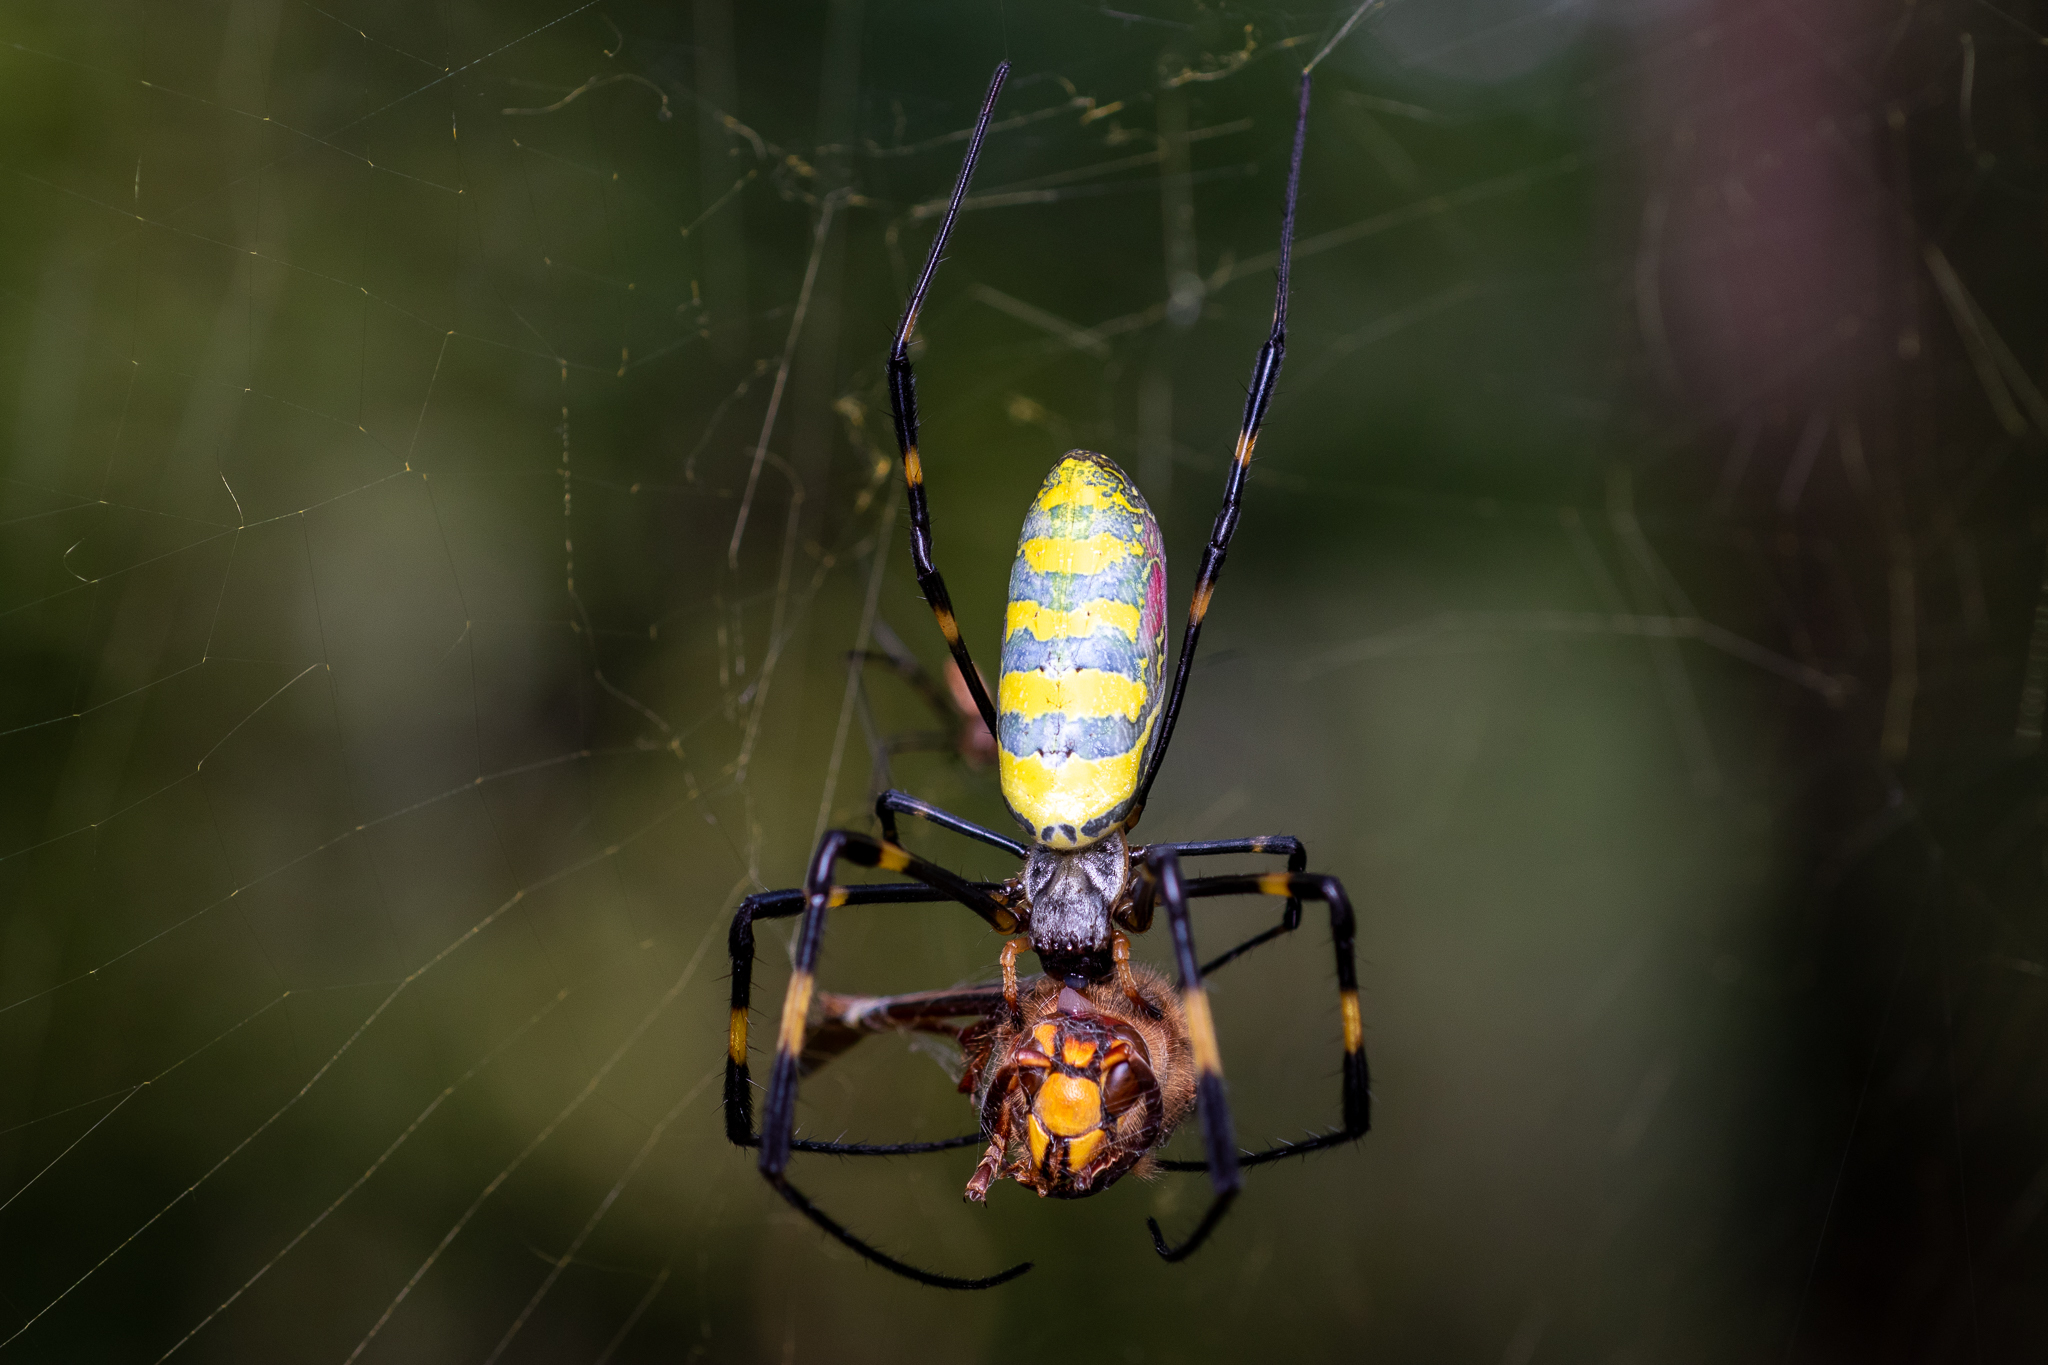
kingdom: Animalia
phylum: Arthropoda
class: Arachnida
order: Araneae
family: Araneidae
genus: Trichonephila
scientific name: Trichonephila clavata
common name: Jorō spider
